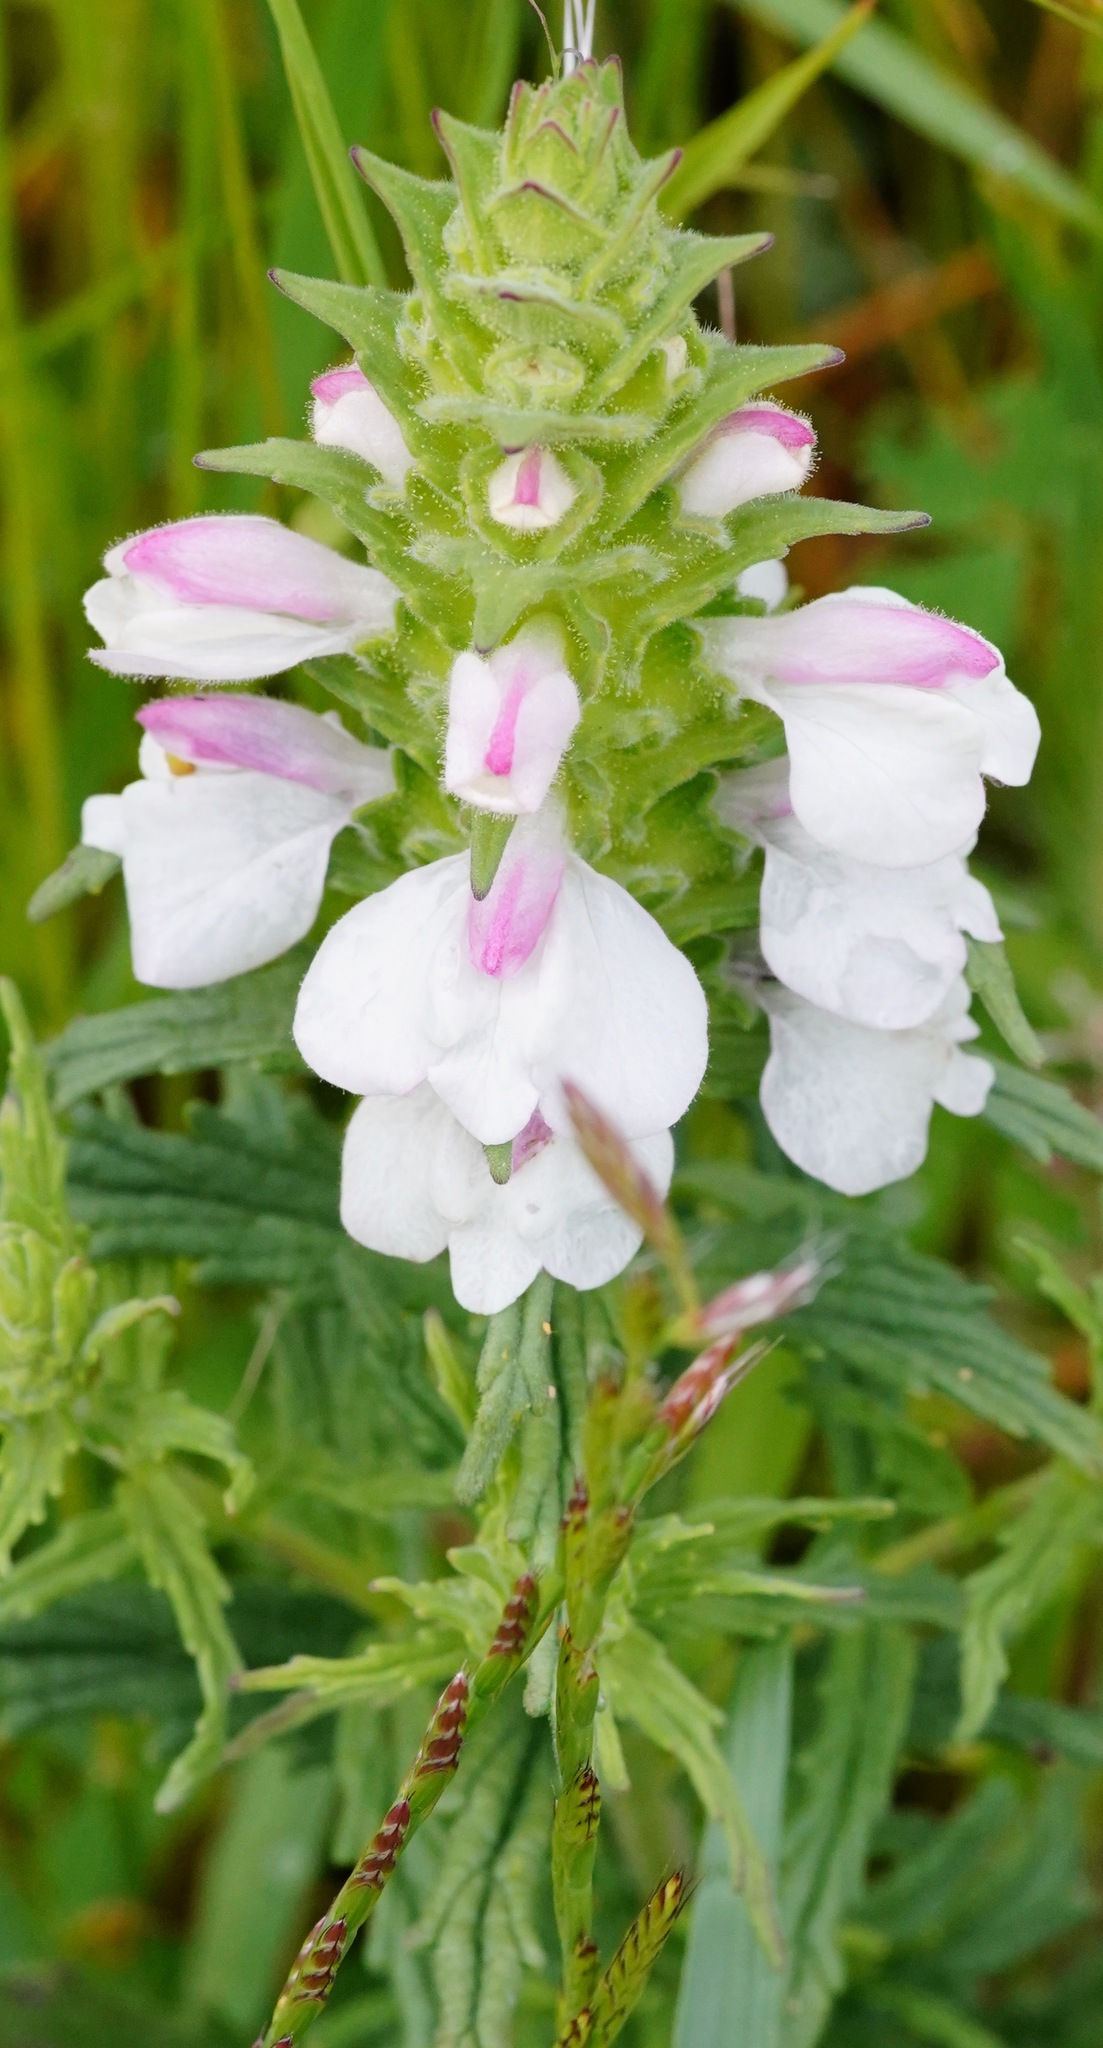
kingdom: Plantae
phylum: Tracheophyta
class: Magnoliopsida
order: Lamiales
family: Orobanchaceae
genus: Bellardia
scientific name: Bellardia trixago
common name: Mediterranean lineseed
